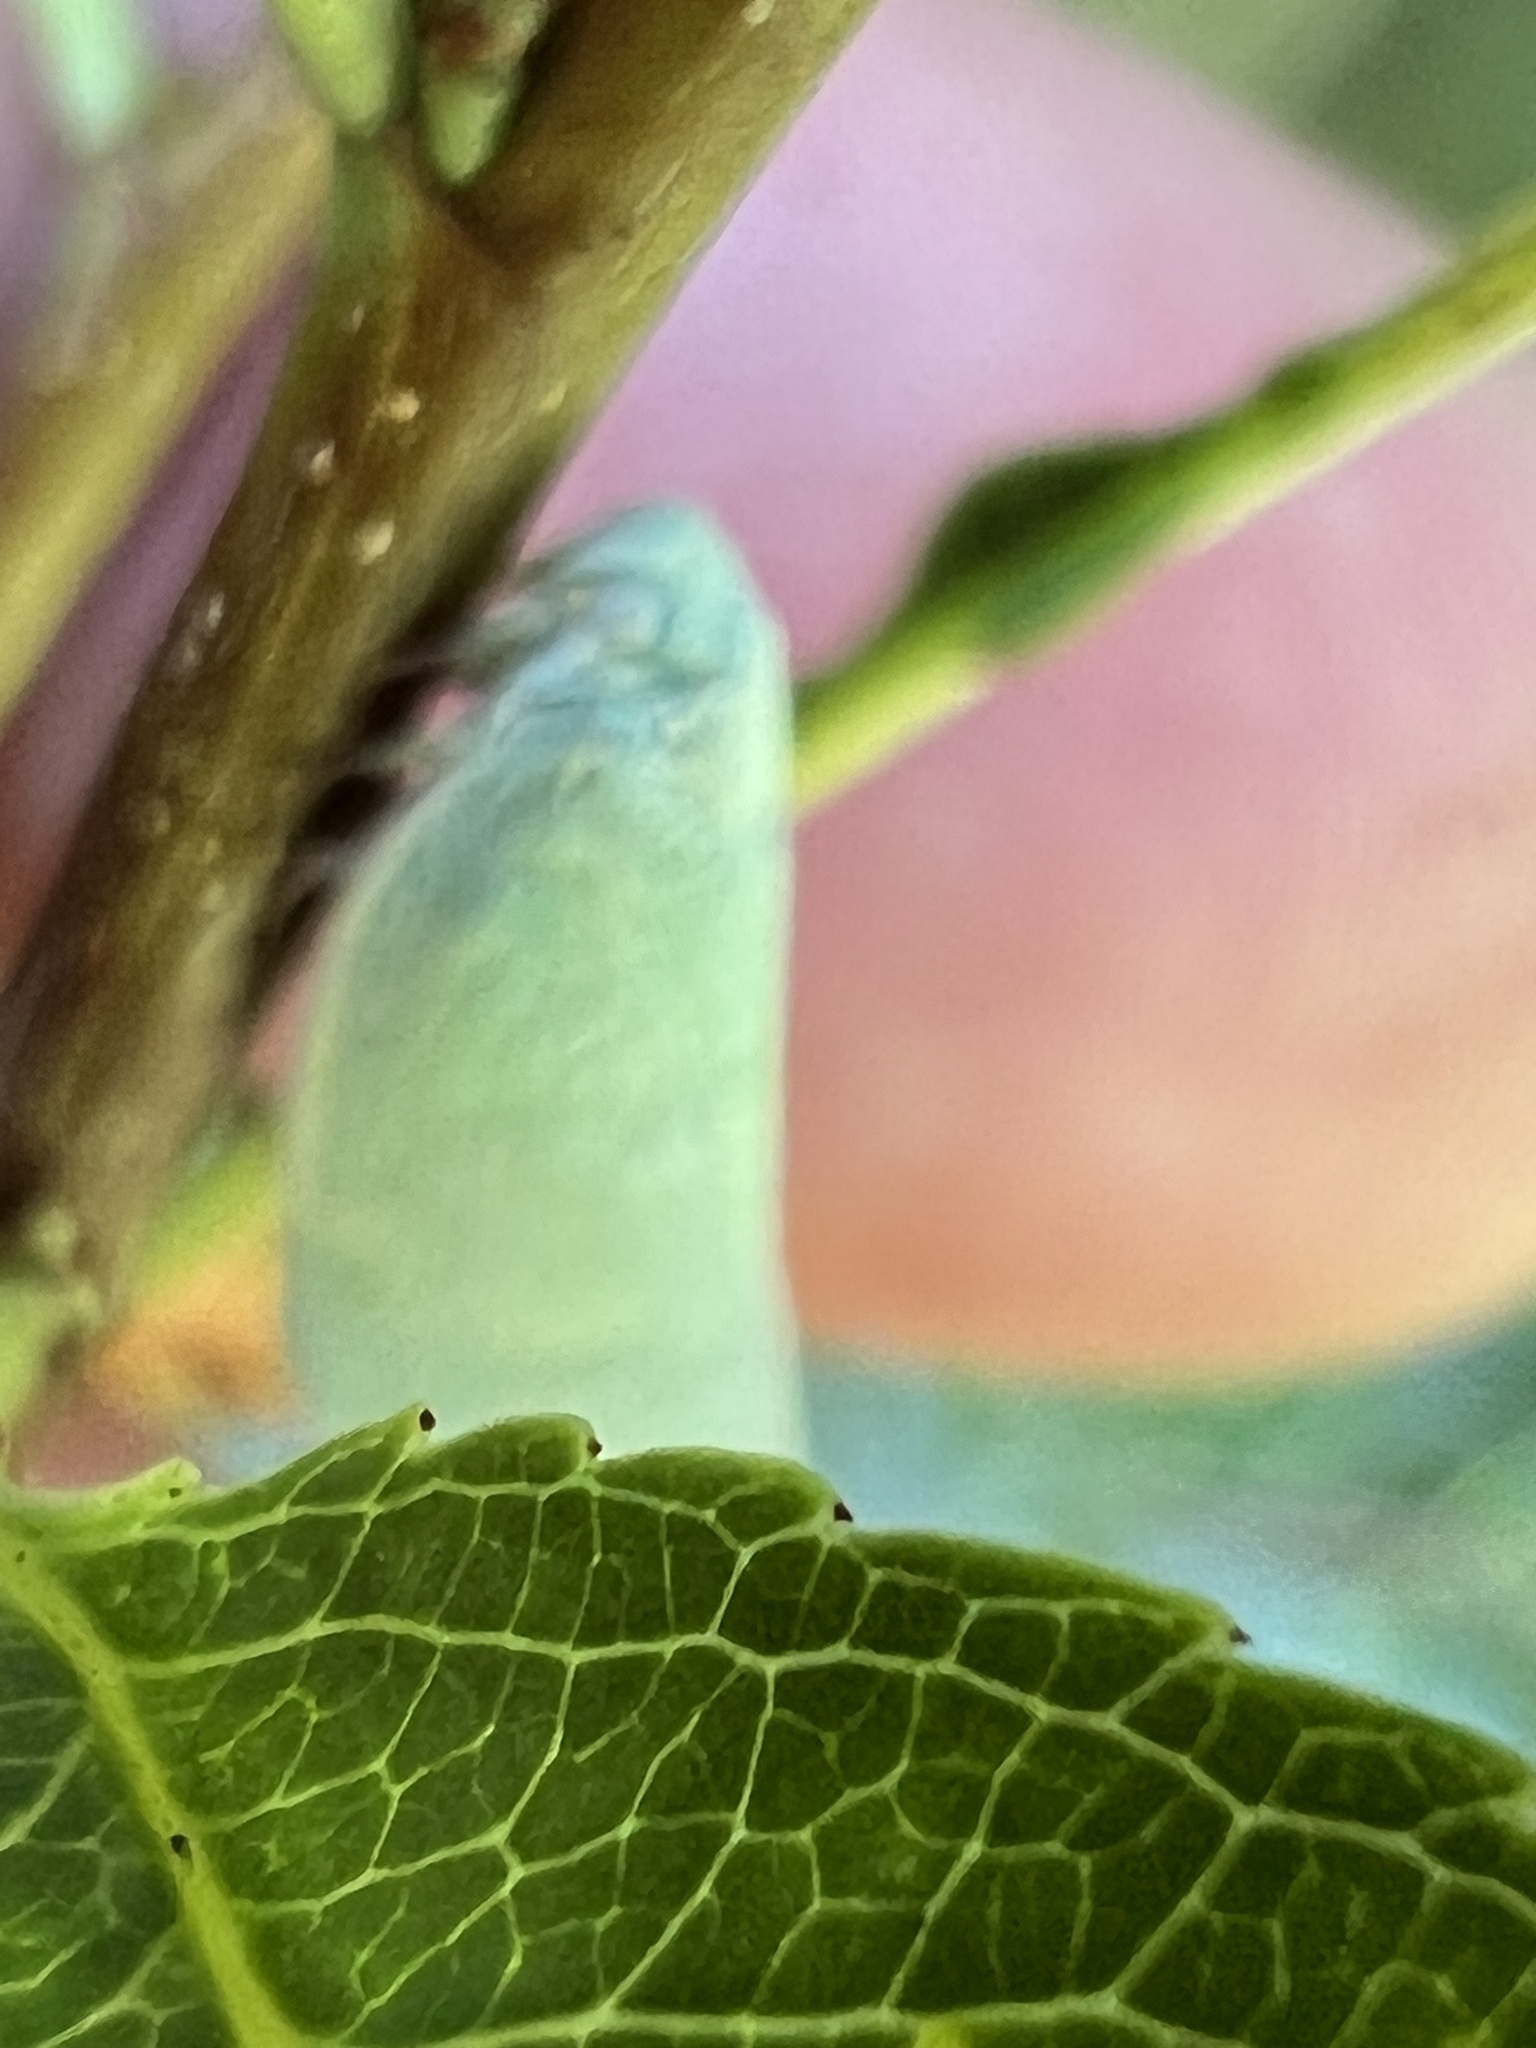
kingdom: Animalia
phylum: Arthropoda
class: Insecta
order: Hemiptera
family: Flatidae
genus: Flatormenis
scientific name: Flatormenis proxima
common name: Northern flatid planthopper
